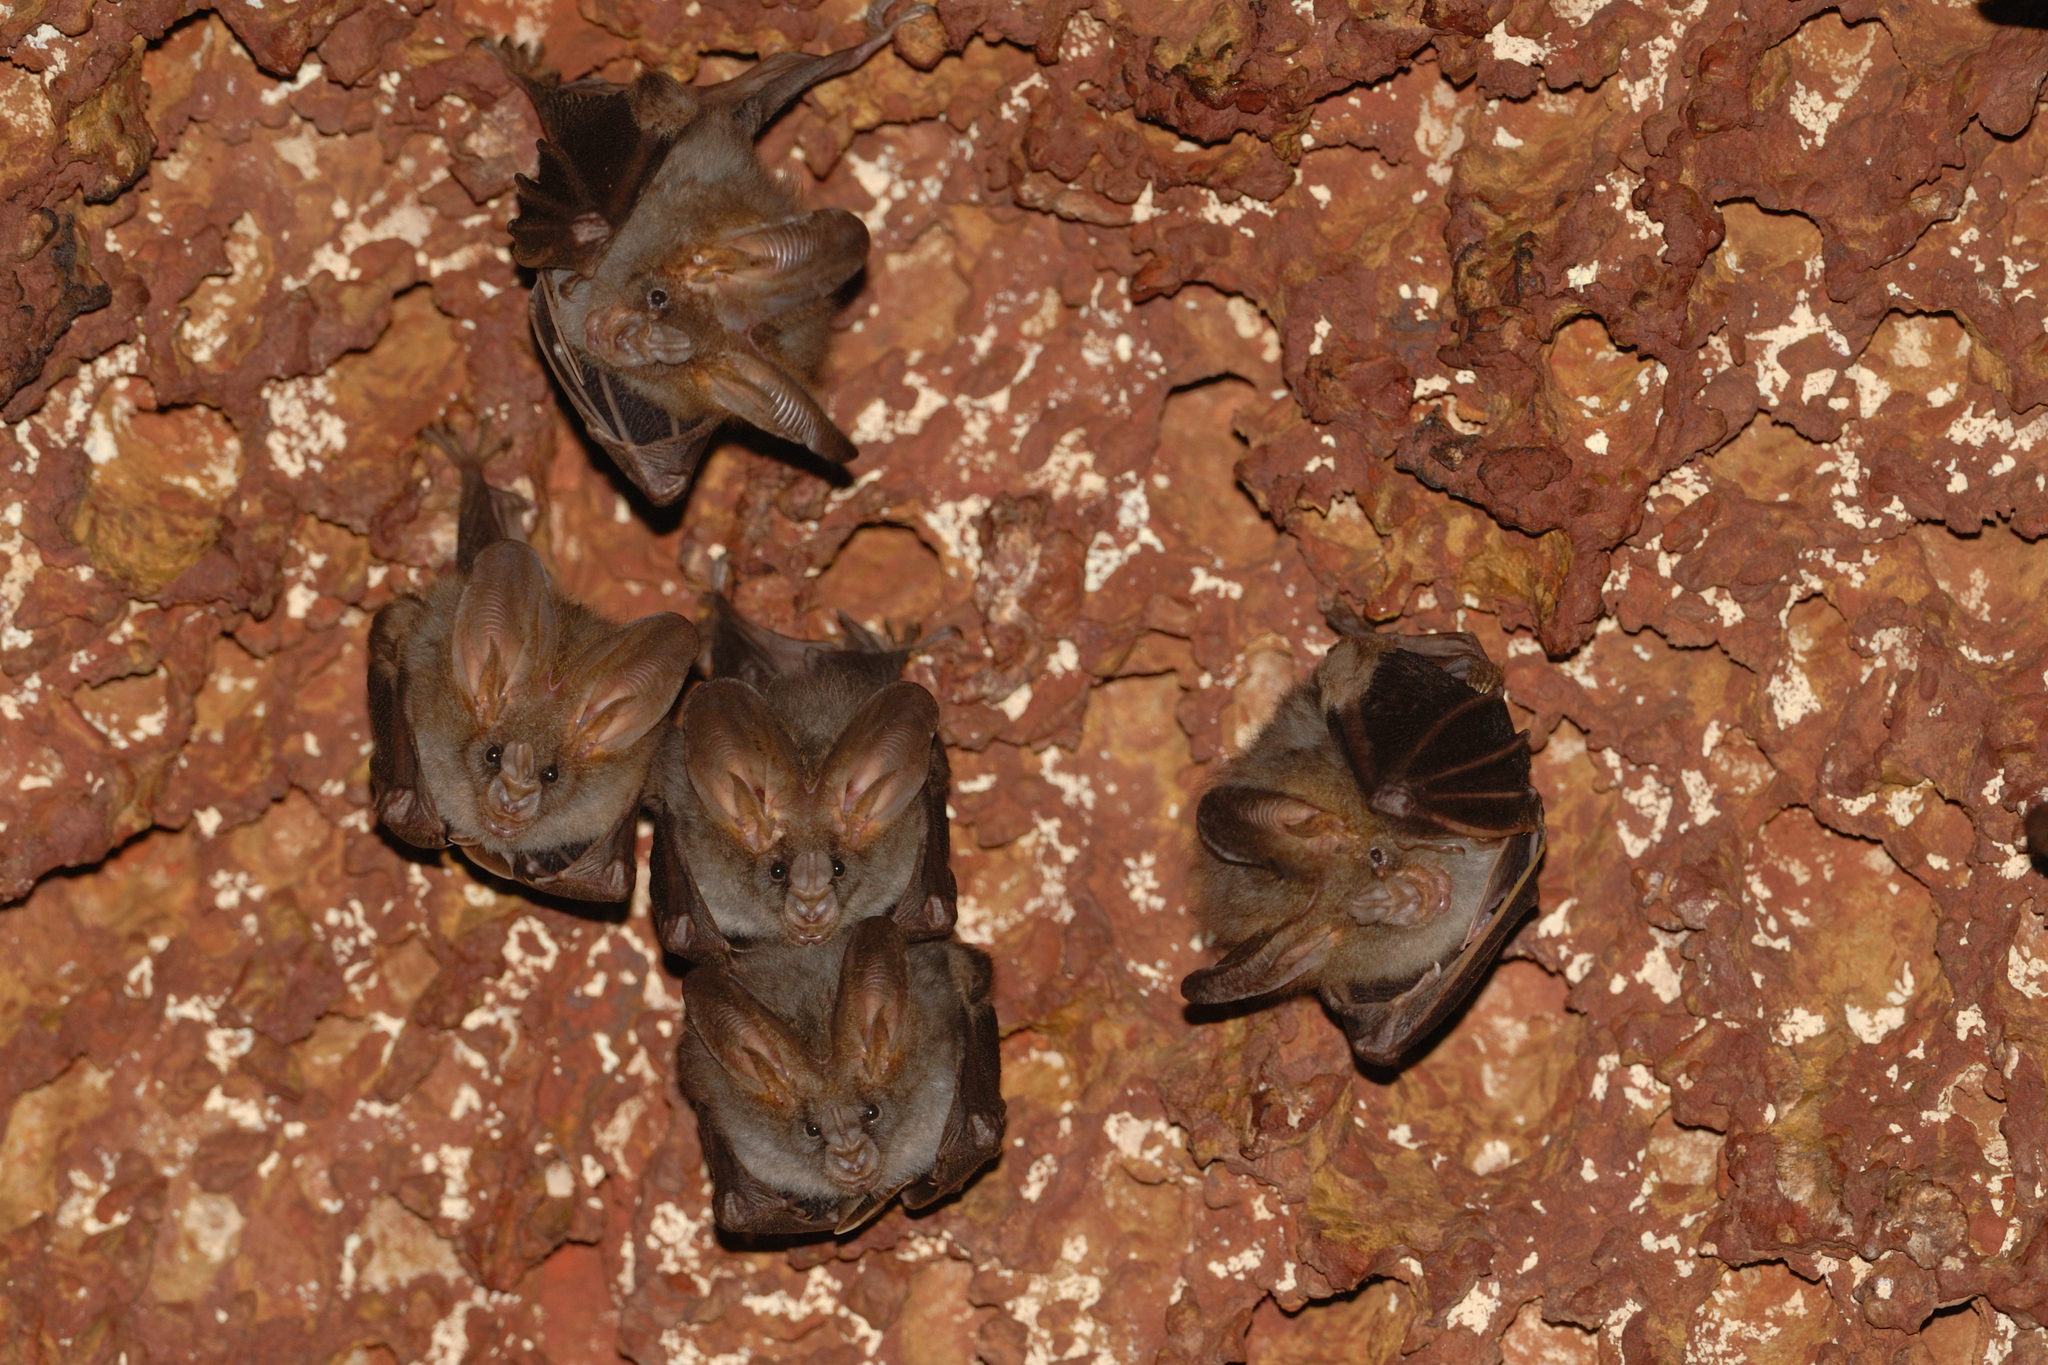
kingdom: Animalia
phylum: Chordata
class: Mammalia
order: Chiroptera
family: Megadermatidae
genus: Megaderma
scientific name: Megaderma spasma
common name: Lesser false vampire bat
